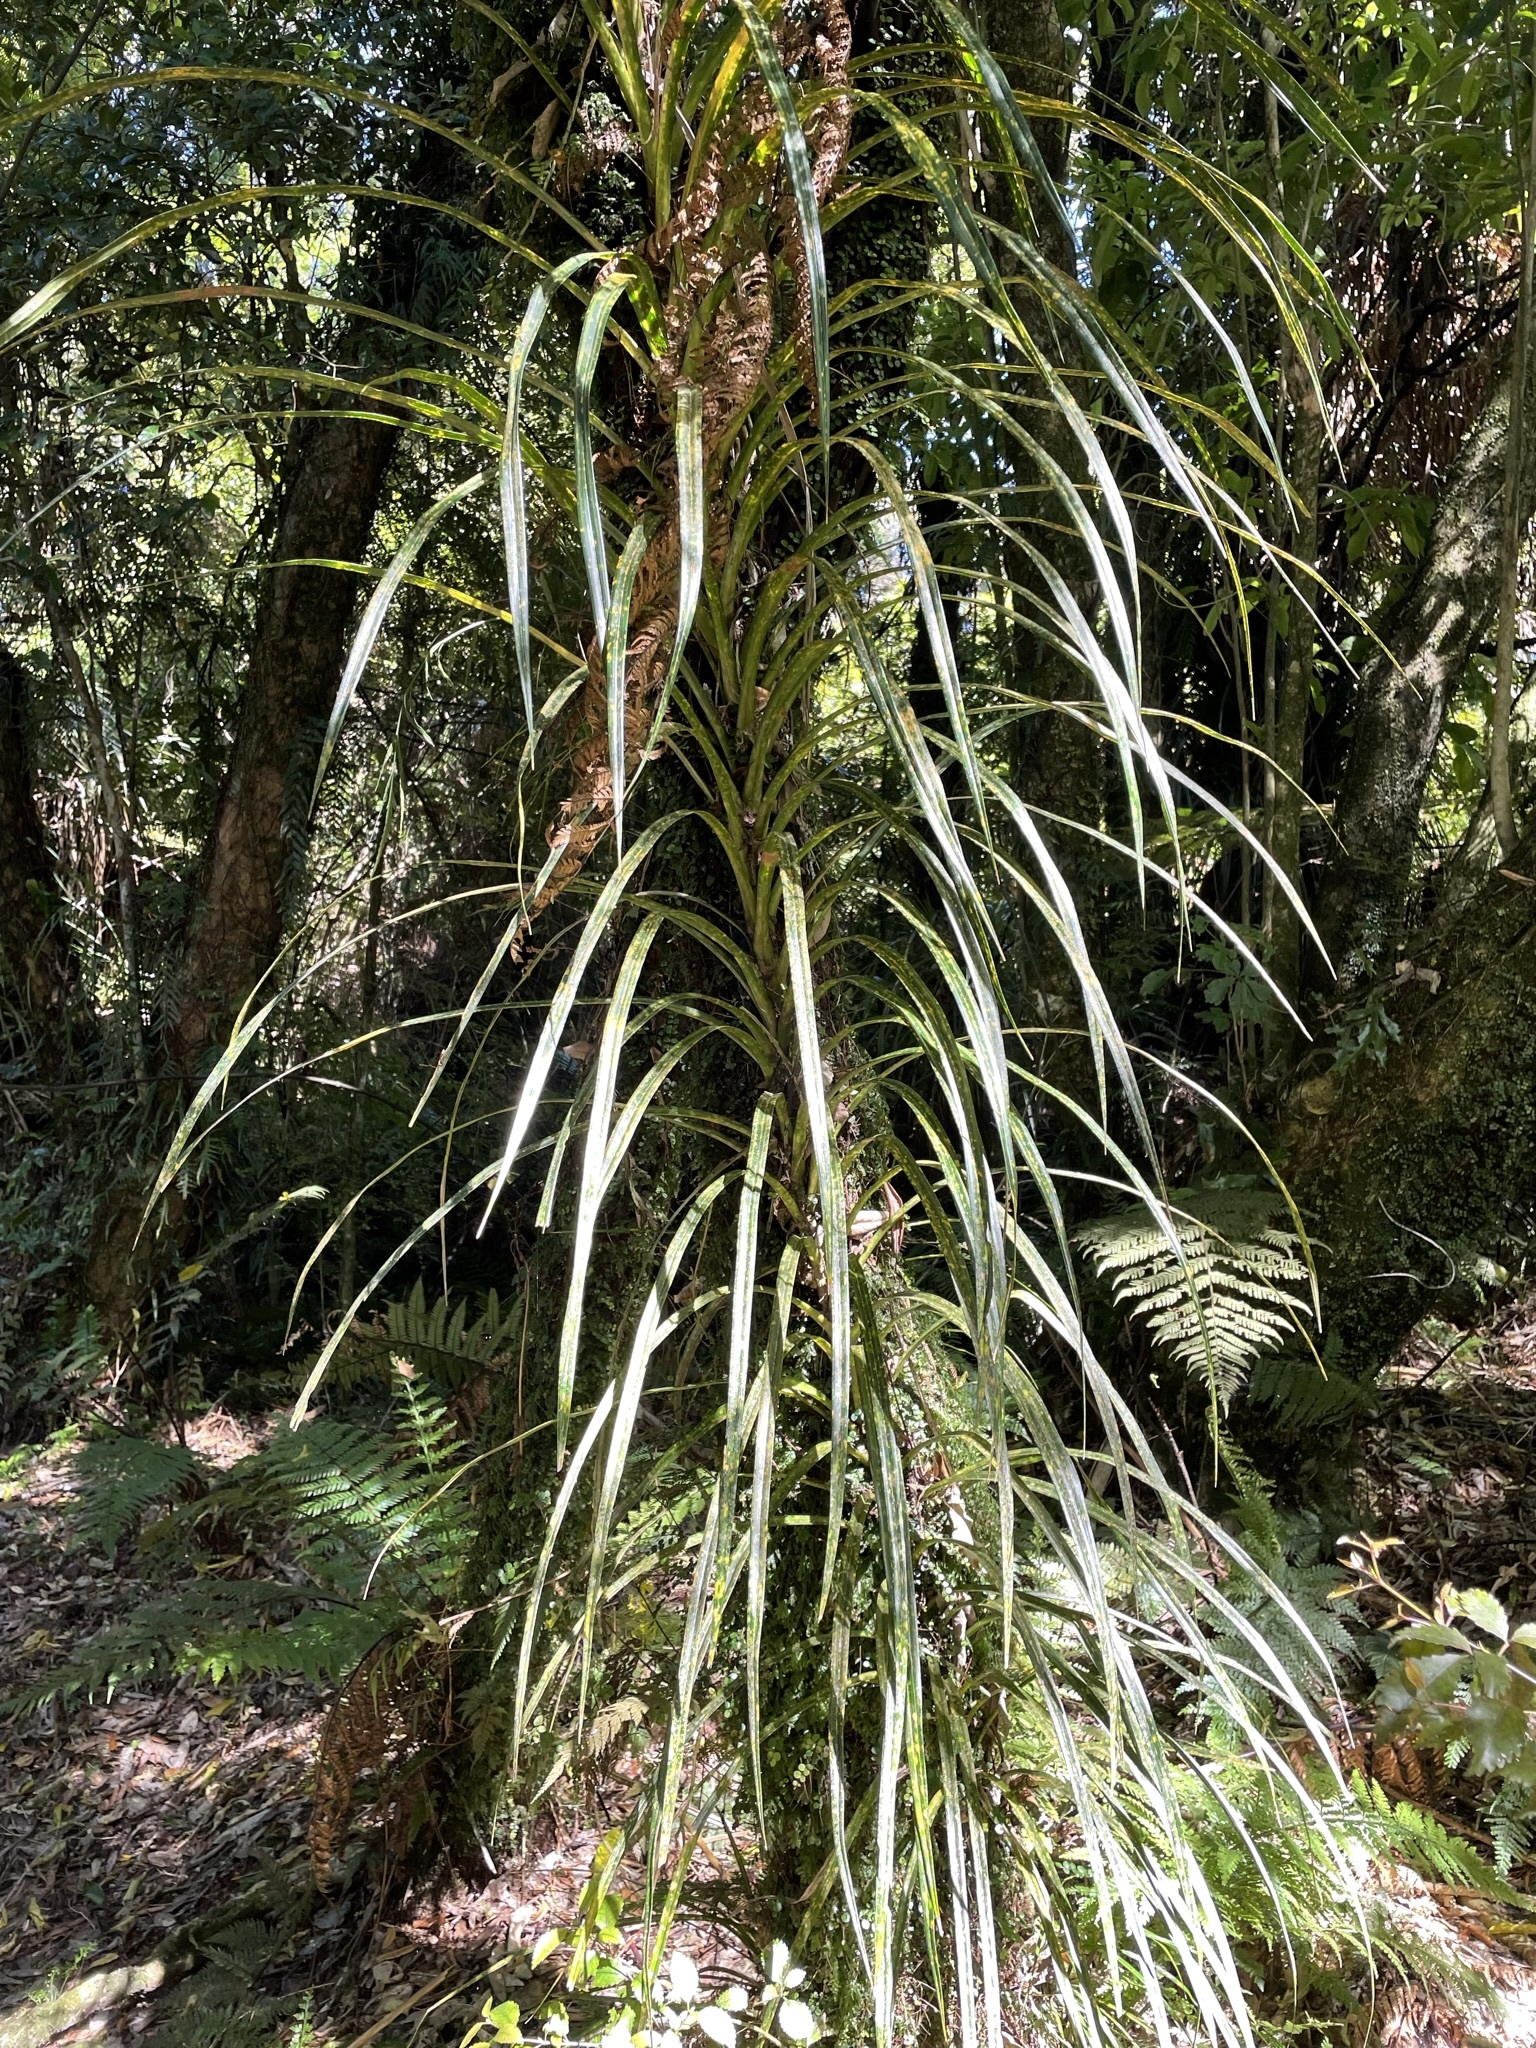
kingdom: Plantae
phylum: Tracheophyta
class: Liliopsida
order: Pandanales
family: Pandanaceae
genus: Freycinetia
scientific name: Freycinetia banksii
